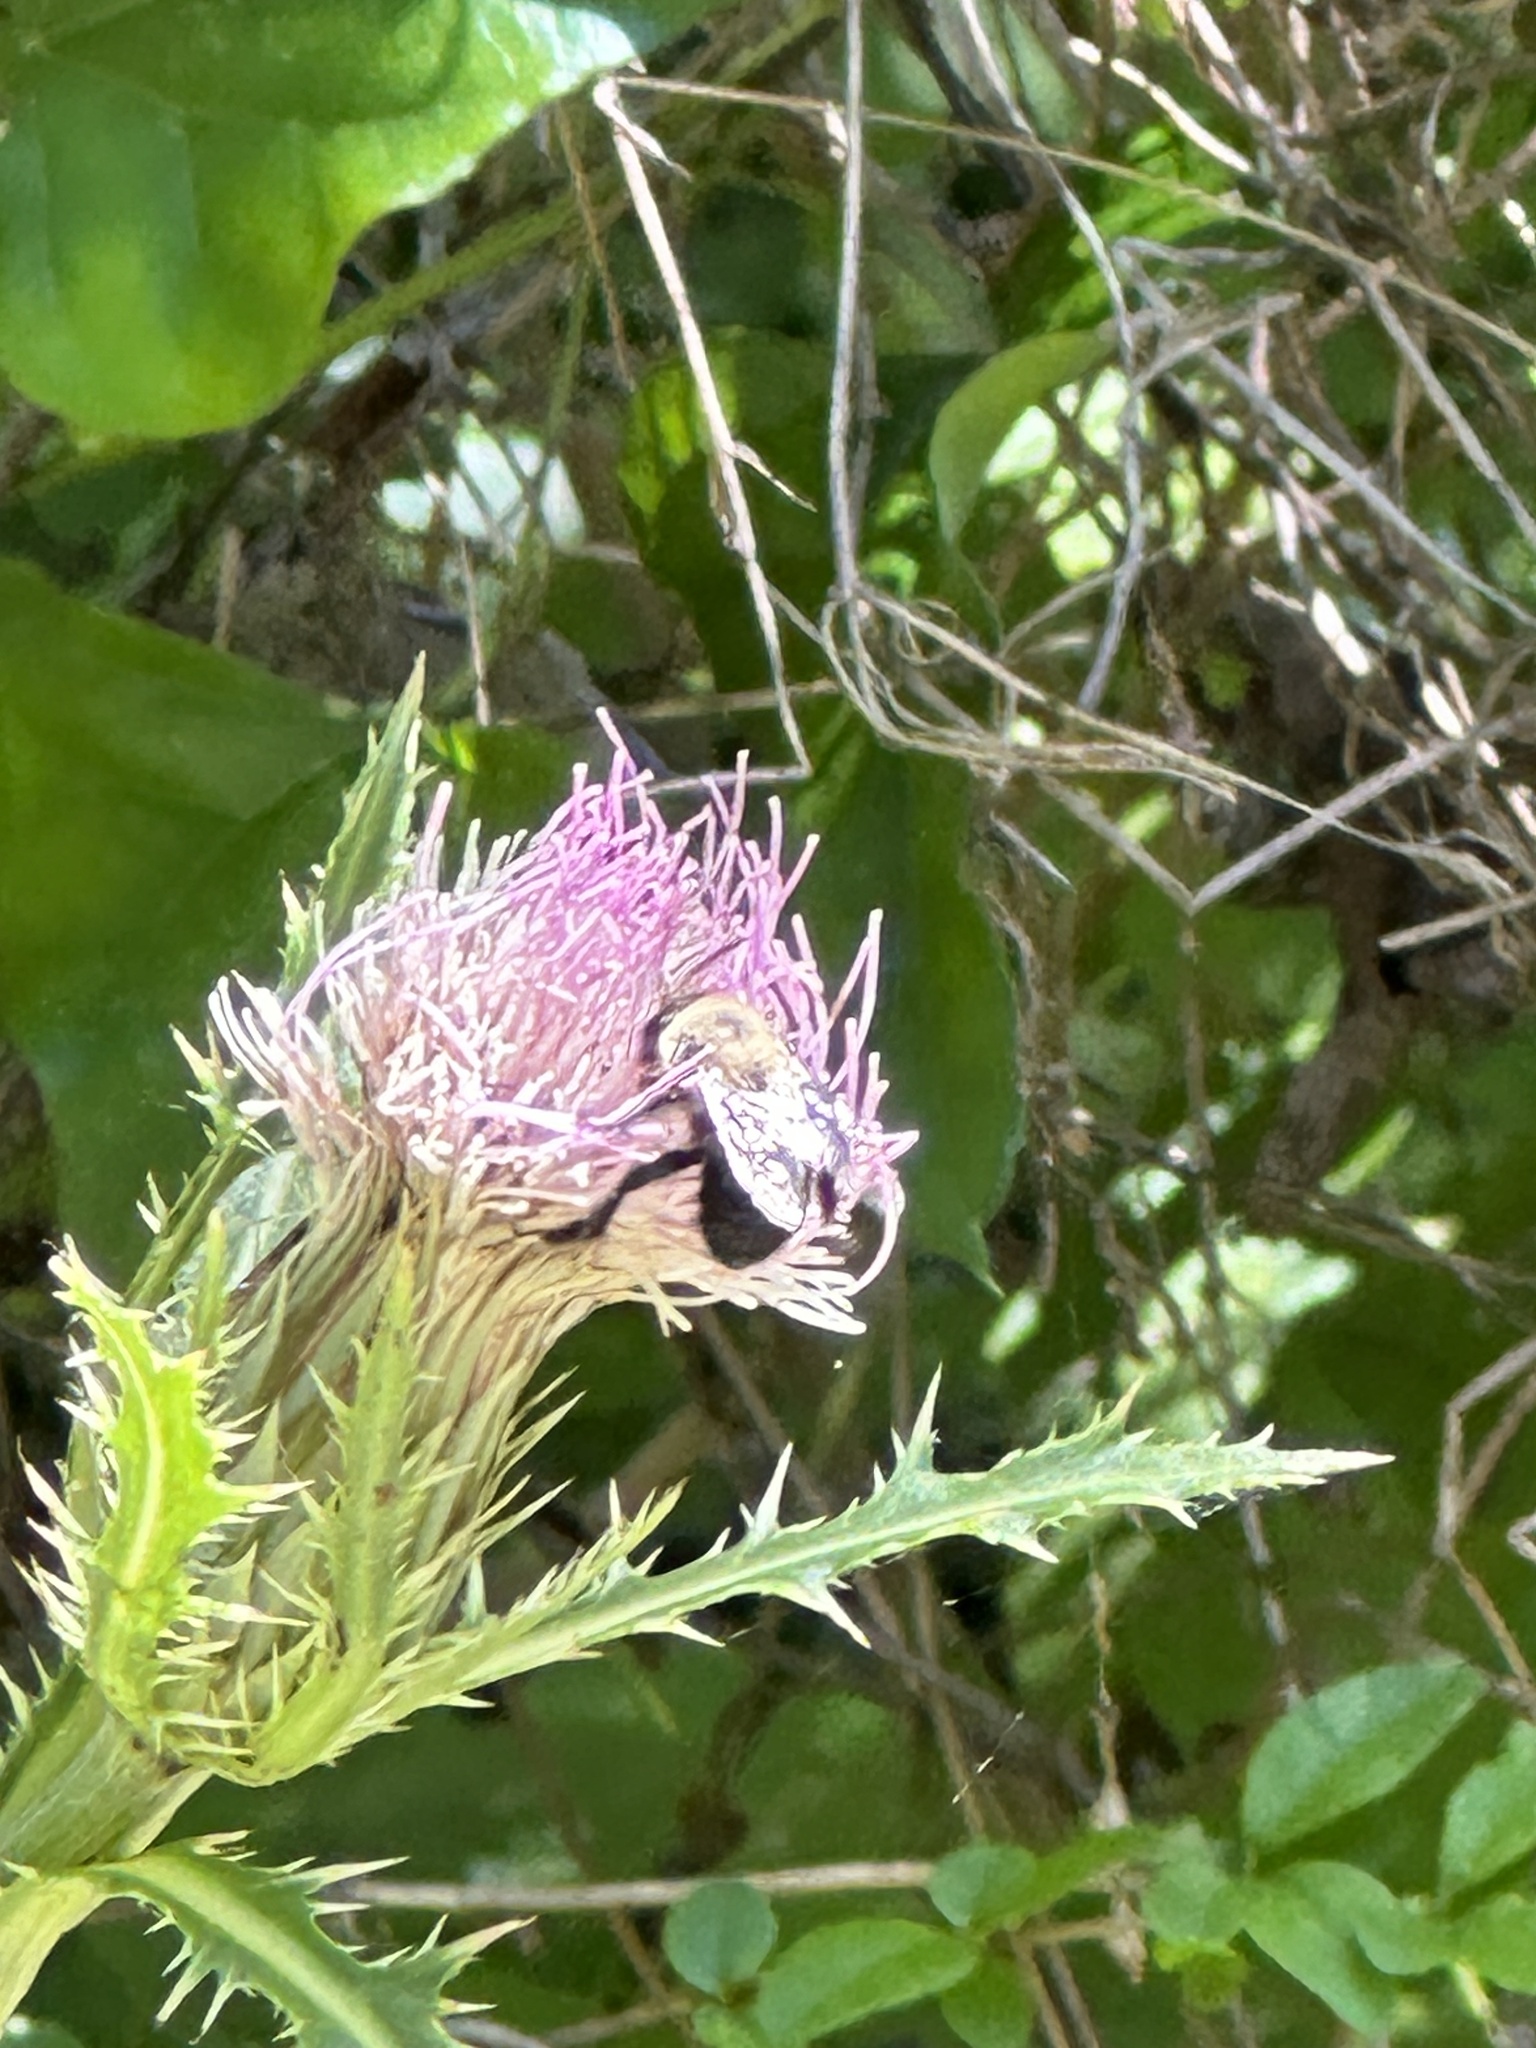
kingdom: Animalia
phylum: Arthropoda
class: Insecta
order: Hymenoptera
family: Apidae
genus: Anthophora
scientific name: Anthophora abrupta
